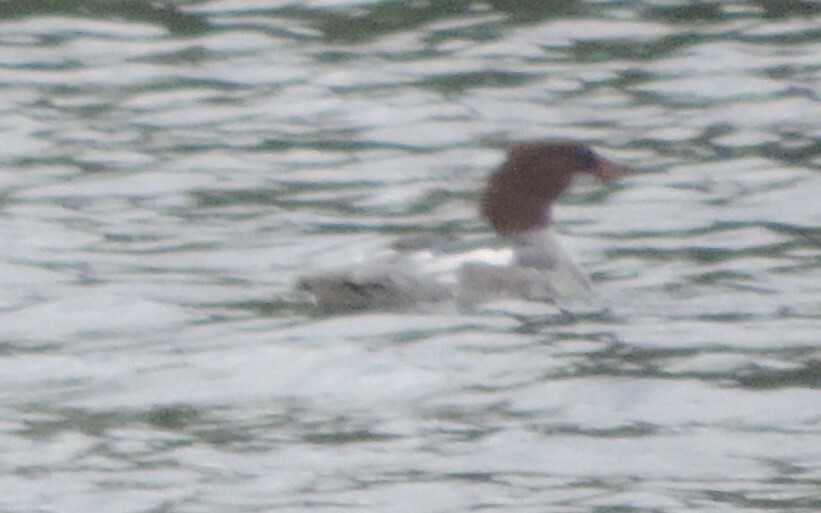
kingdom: Animalia
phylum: Chordata
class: Aves
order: Anseriformes
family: Anatidae
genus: Mergus
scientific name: Mergus merganser
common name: Common merganser
